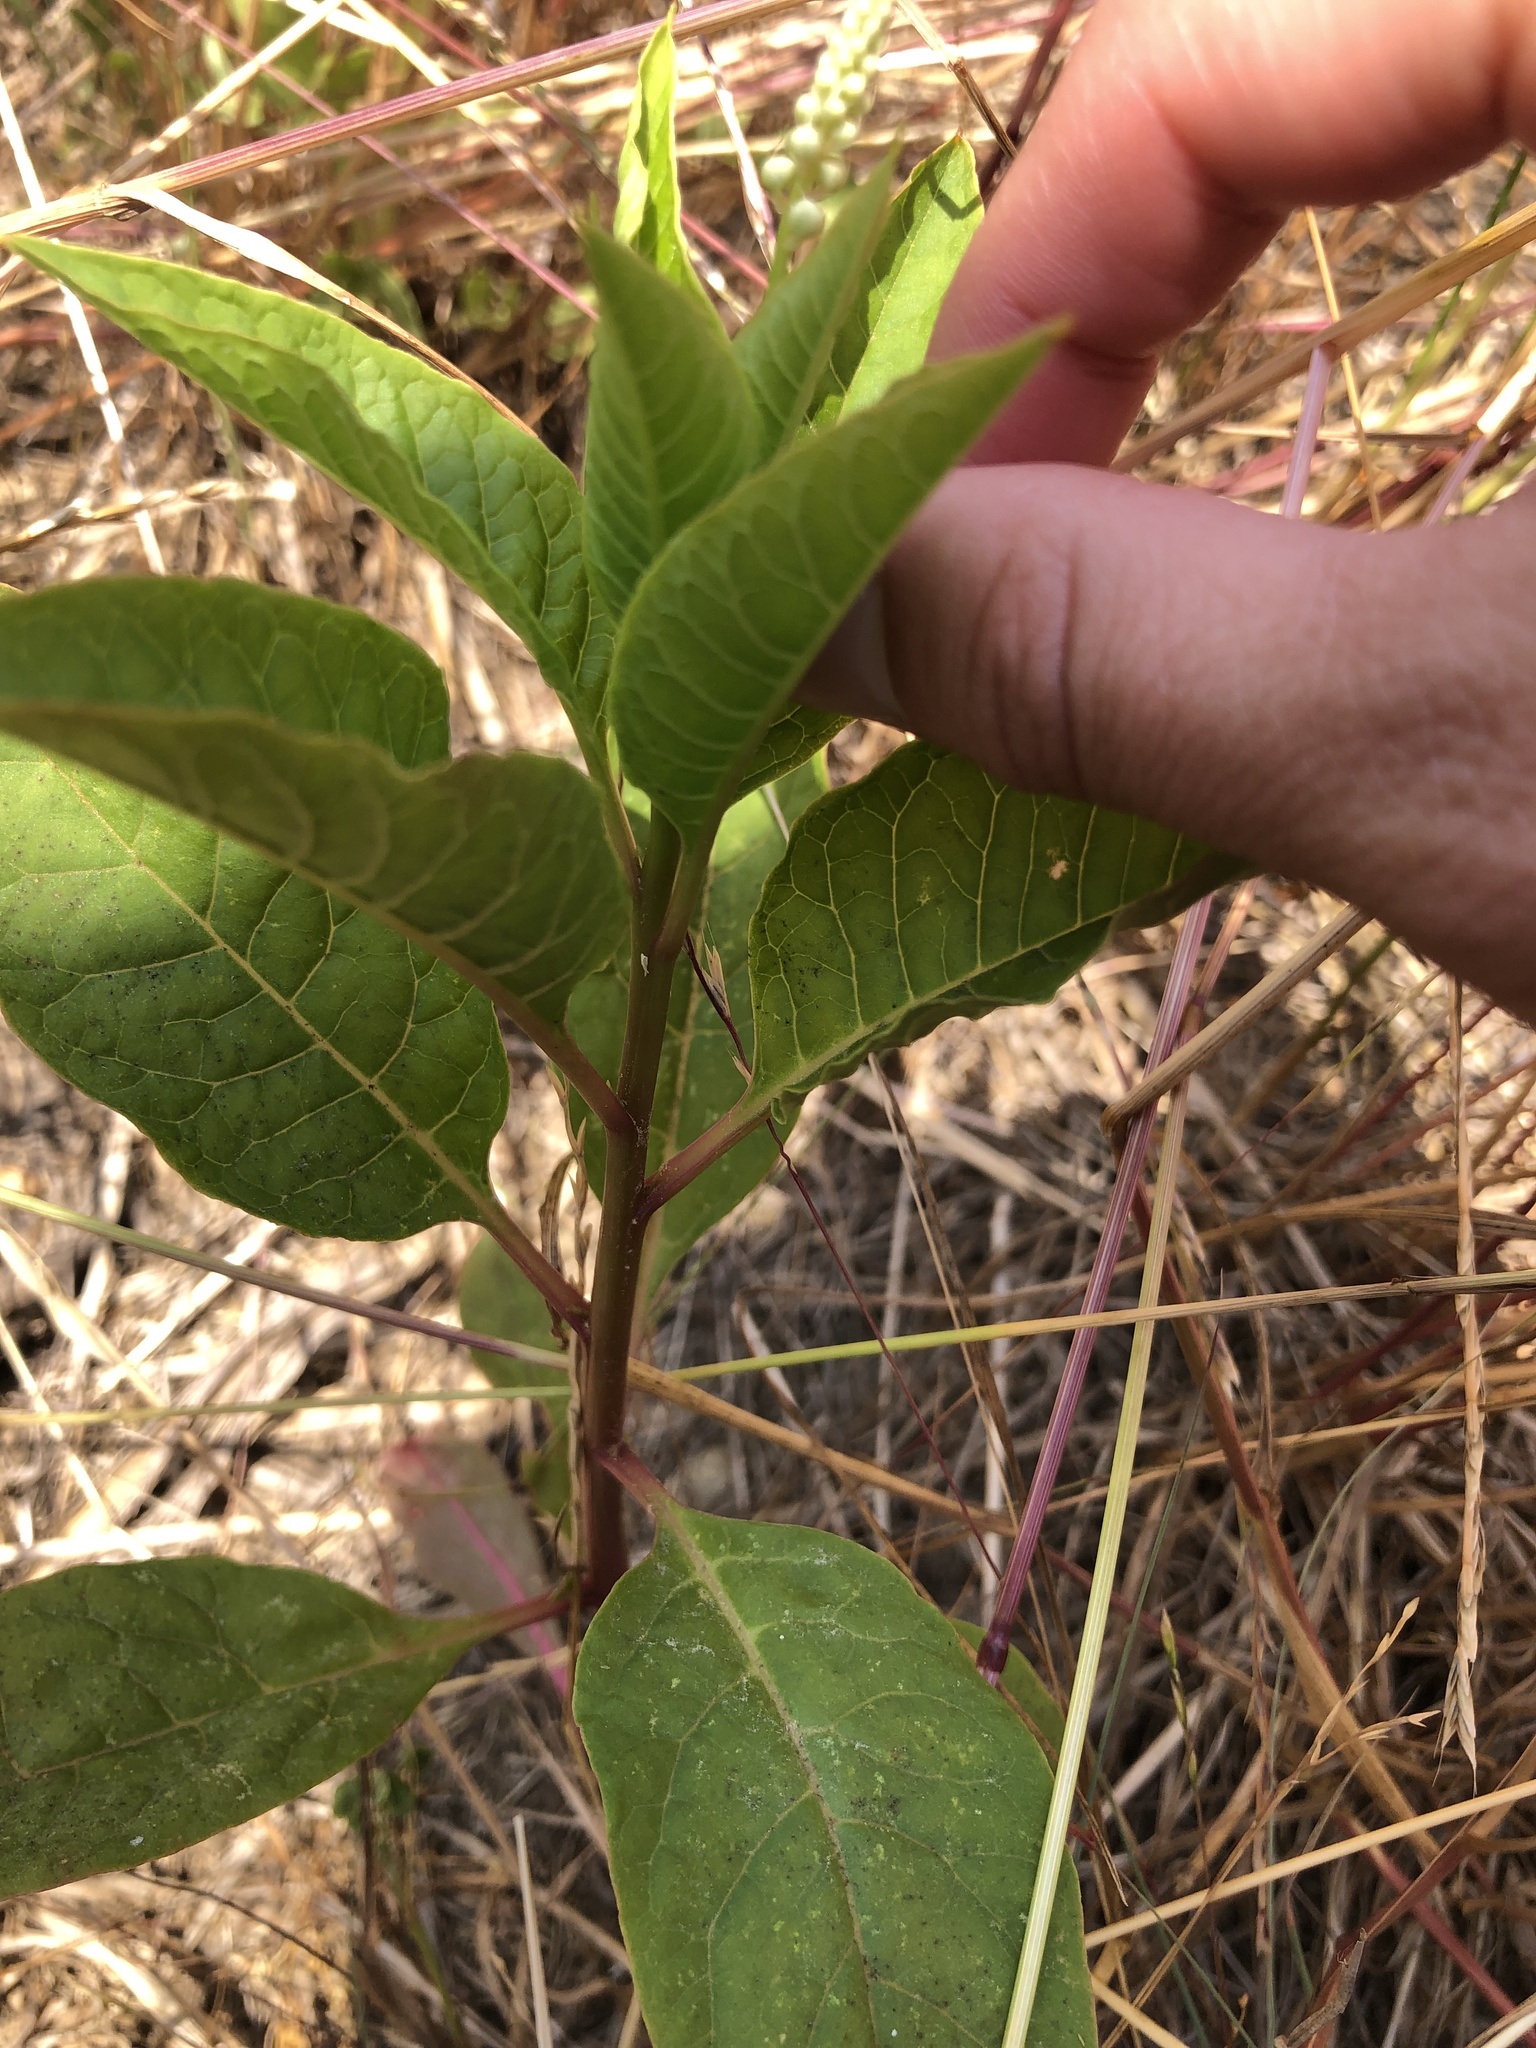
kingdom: Plantae
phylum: Tracheophyta
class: Magnoliopsida
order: Caryophyllales
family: Phytolaccaceae
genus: Phytolacca
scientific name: Phytolacca americana
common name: American pokeweed
